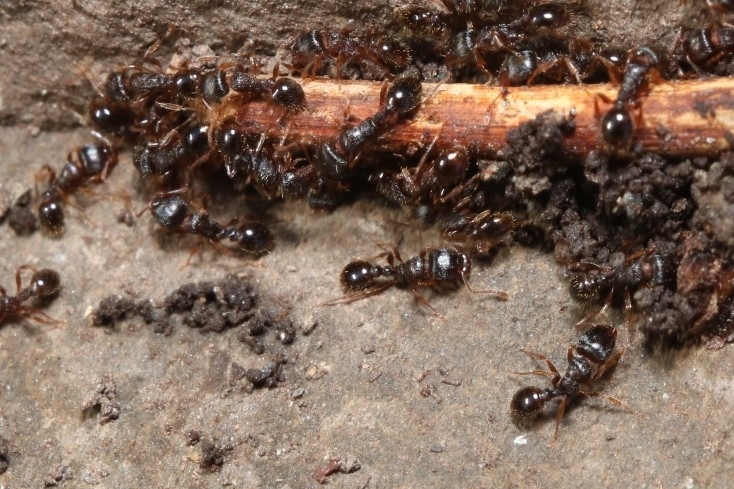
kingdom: Animalia
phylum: Arthropoda
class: Insecta
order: Hymenoptera
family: Formicidae
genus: Tetramorium
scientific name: Tetramorium immigrans
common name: Pavement ant
